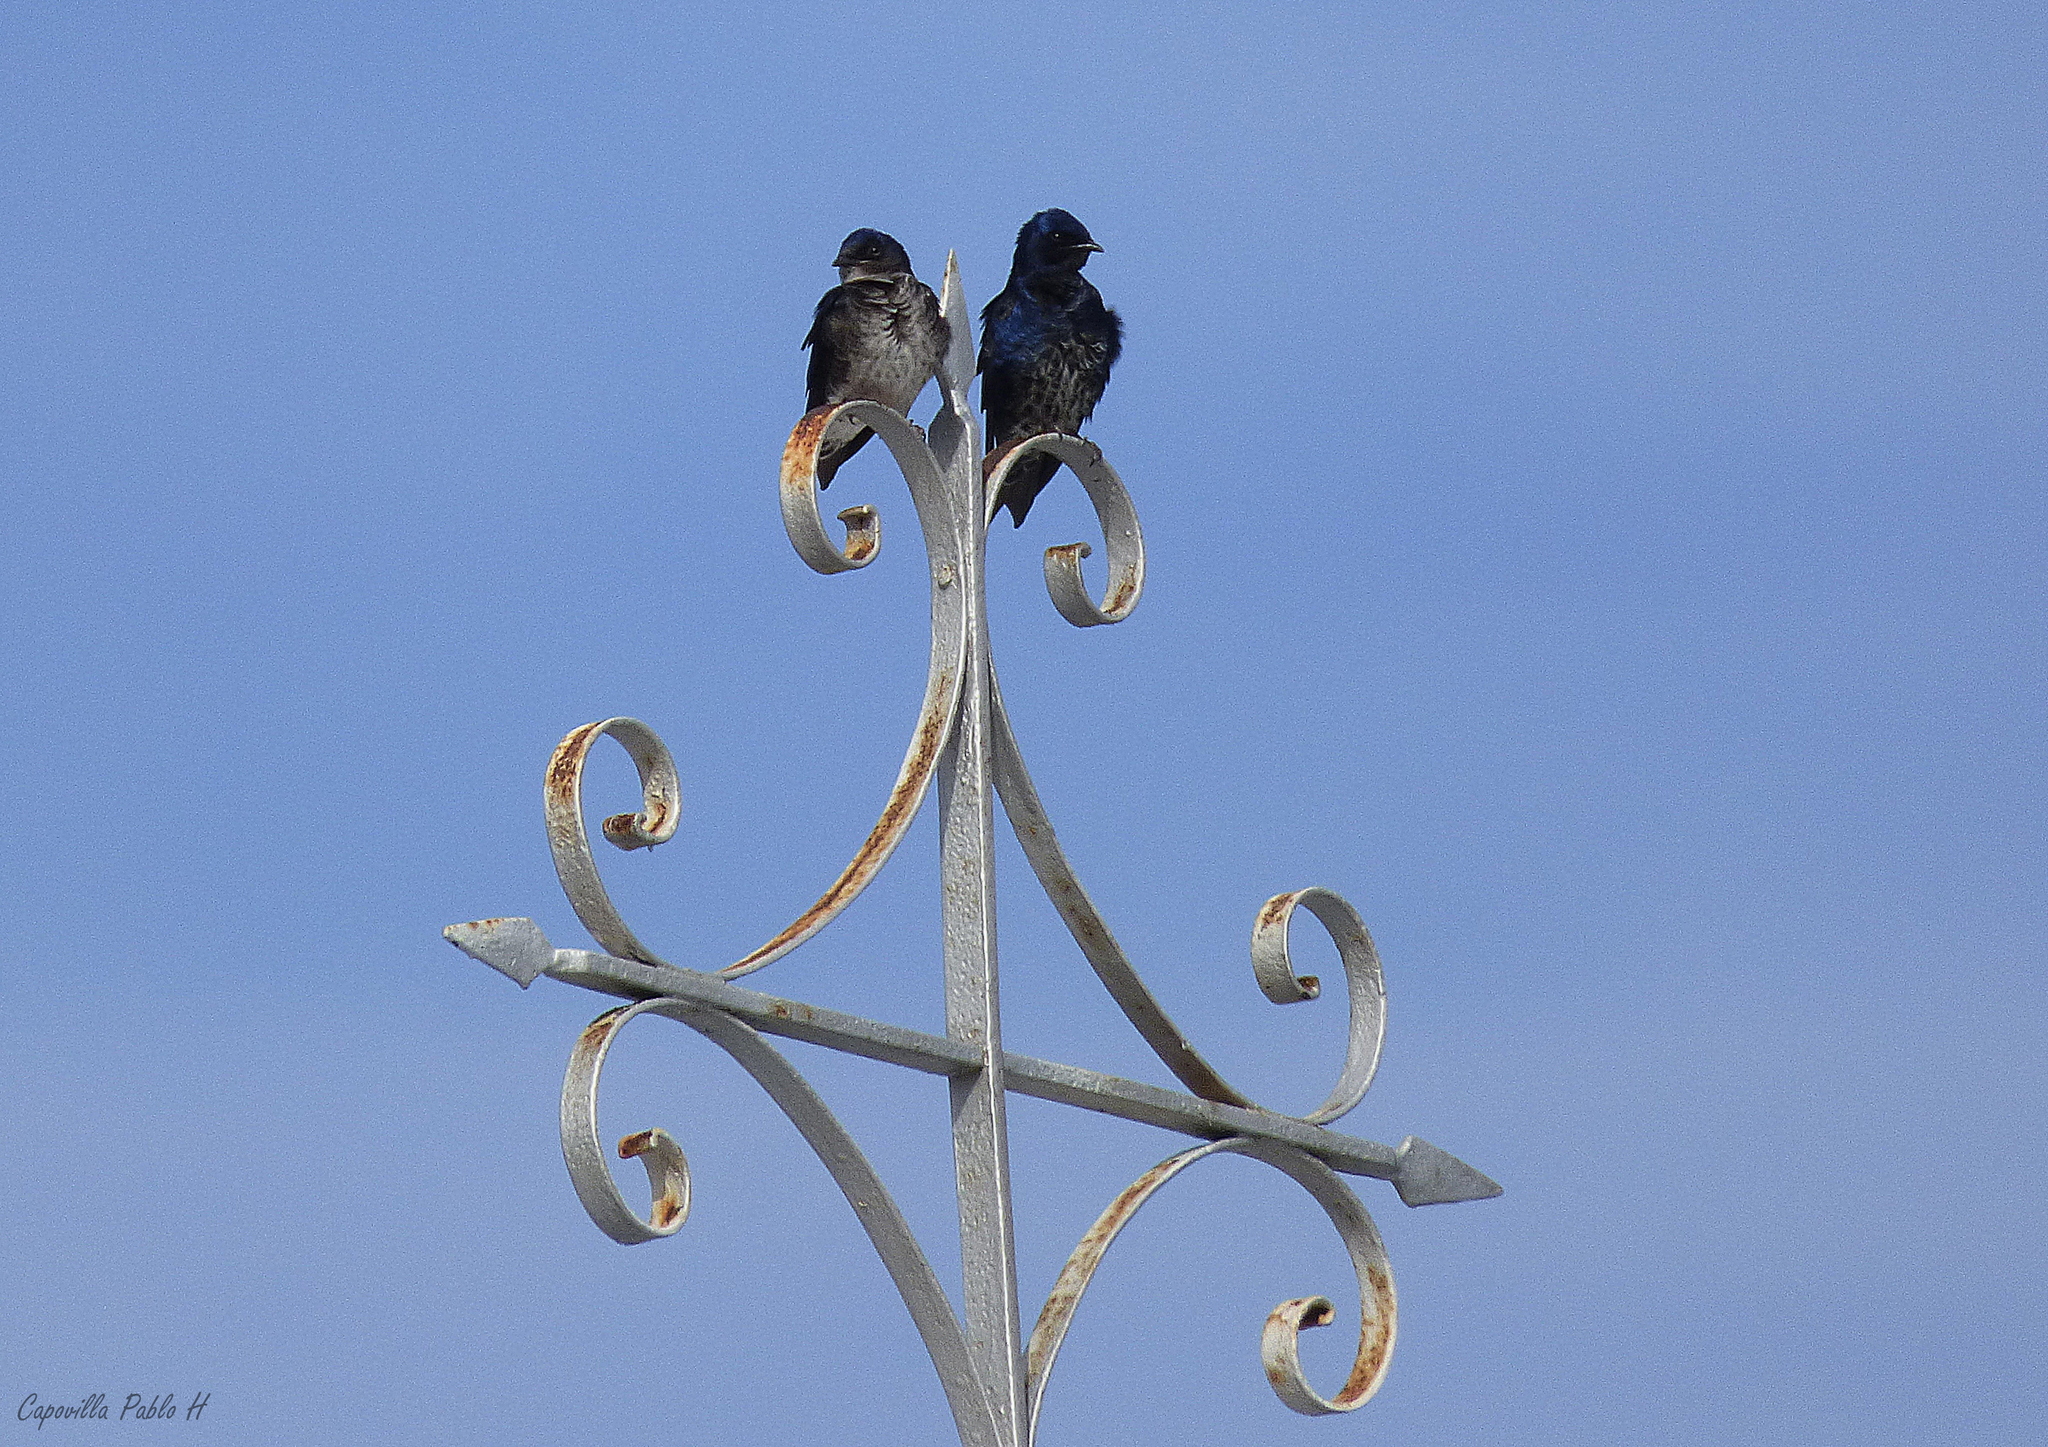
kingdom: Animalia
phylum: Chordata
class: Aves
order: Passeriformes
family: Hirundinidae
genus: Progne
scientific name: Progne elegans
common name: Southern martin
